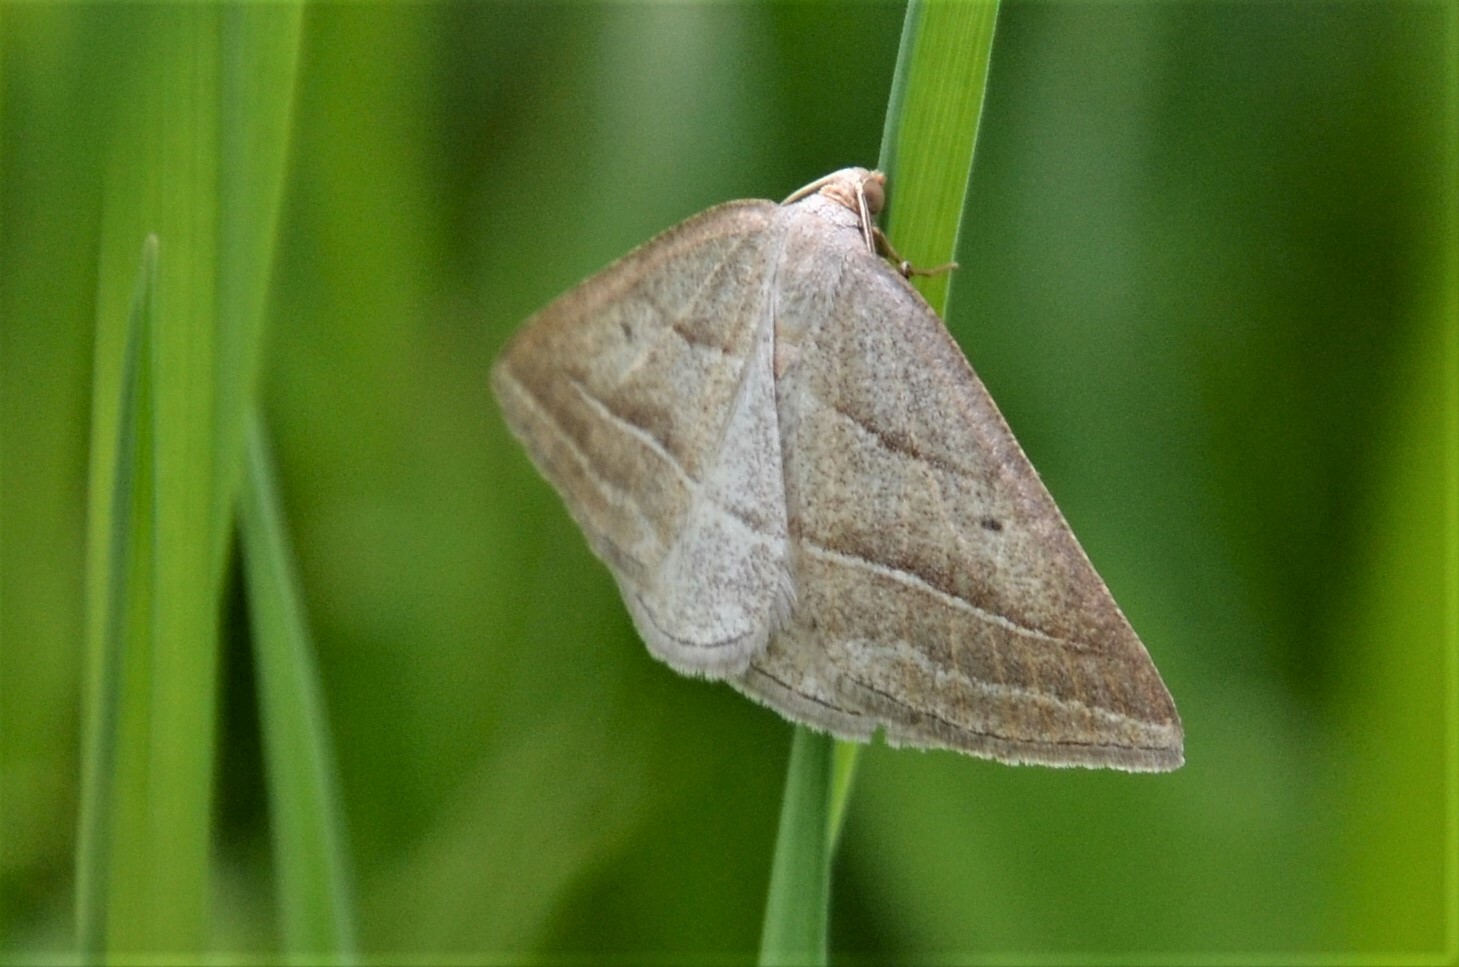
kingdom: Animalia
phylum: Arthropoda
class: Insecta
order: Lepidoptera
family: Pterophoridae
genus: Pterophorus
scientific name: Pterophorus Petrophora chlorosata
